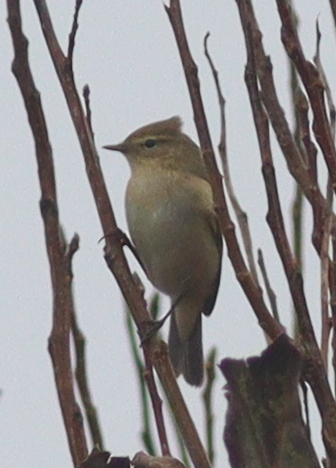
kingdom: Animalia
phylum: Chordata
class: Aves
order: Passeriformes
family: Phylloscopidae
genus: Phylloscopus
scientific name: Phylloscopus collybita
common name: Common chiffchaff
